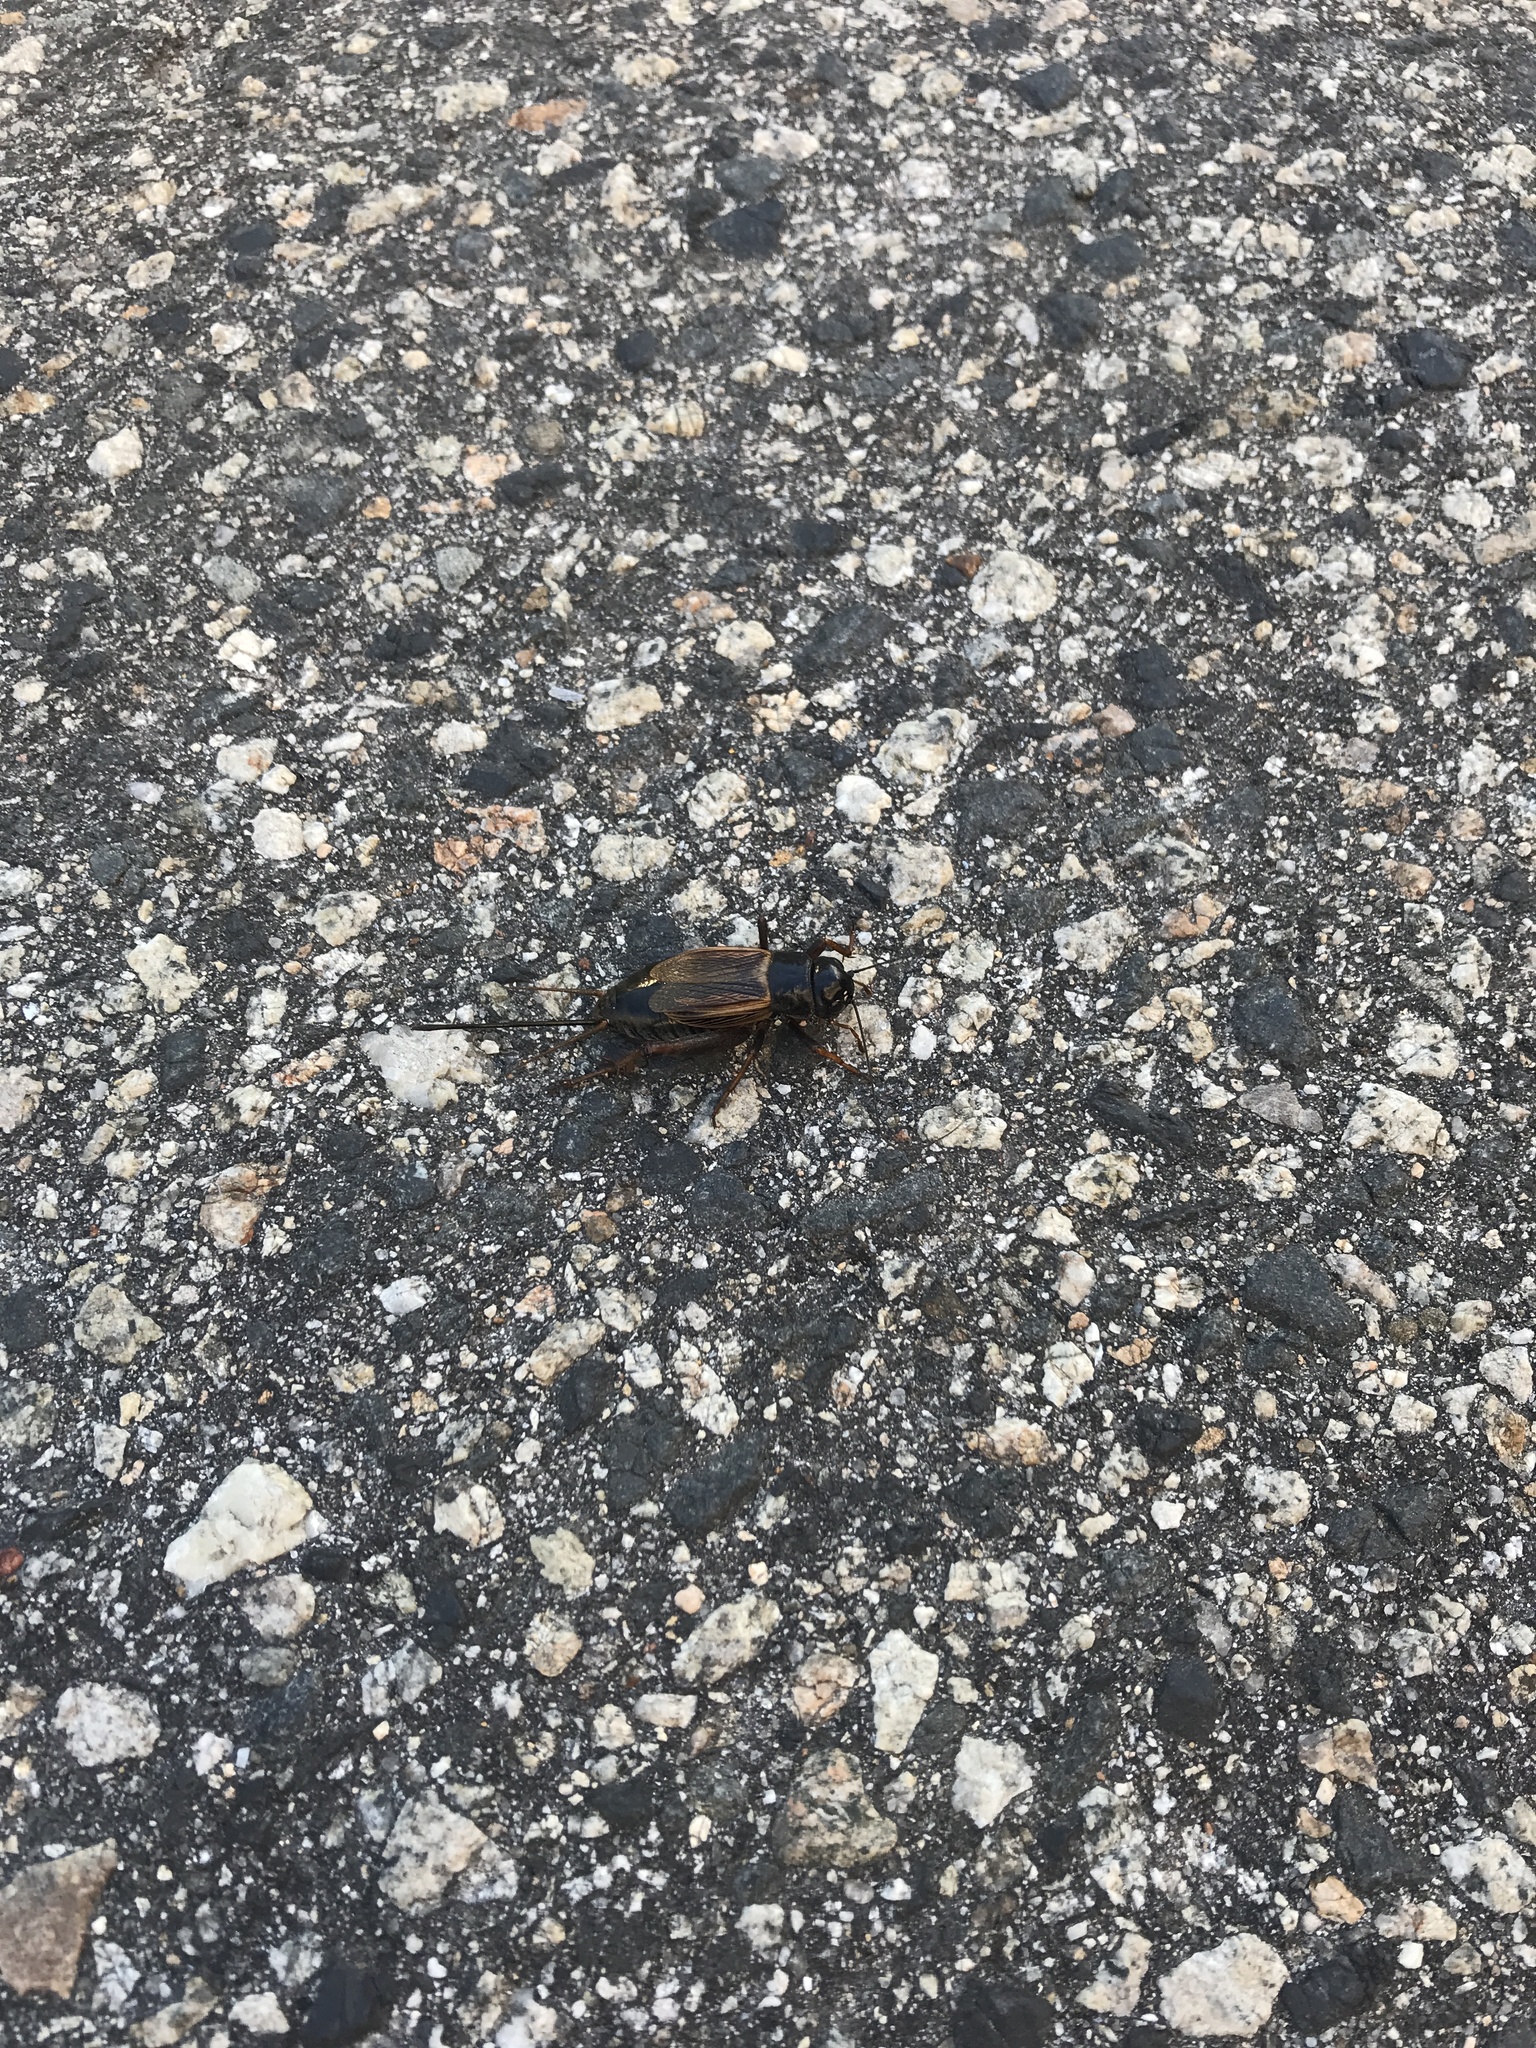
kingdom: Animalia
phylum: Arthropoda
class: Insecta
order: Orthoptera
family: Gryllidae
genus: Gryllus
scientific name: Gryllus pennsylvanicus
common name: Fall field cricket
